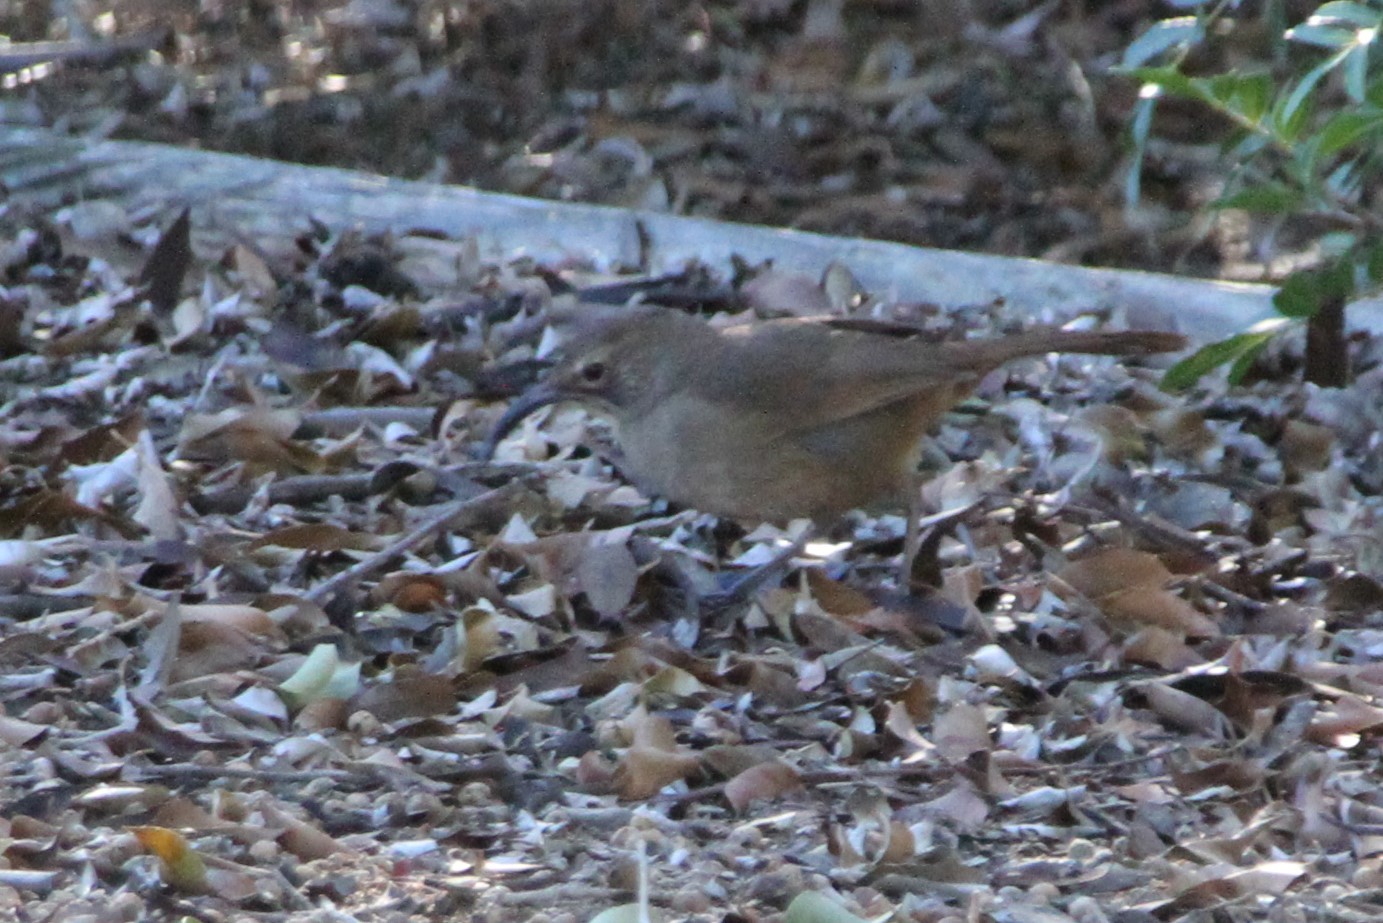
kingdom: Animalia
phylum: Chordata
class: Aves
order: Passeriformes
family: Mimidae
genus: Toxostoma
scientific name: Toxostoma redivivum
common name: California thrasher
